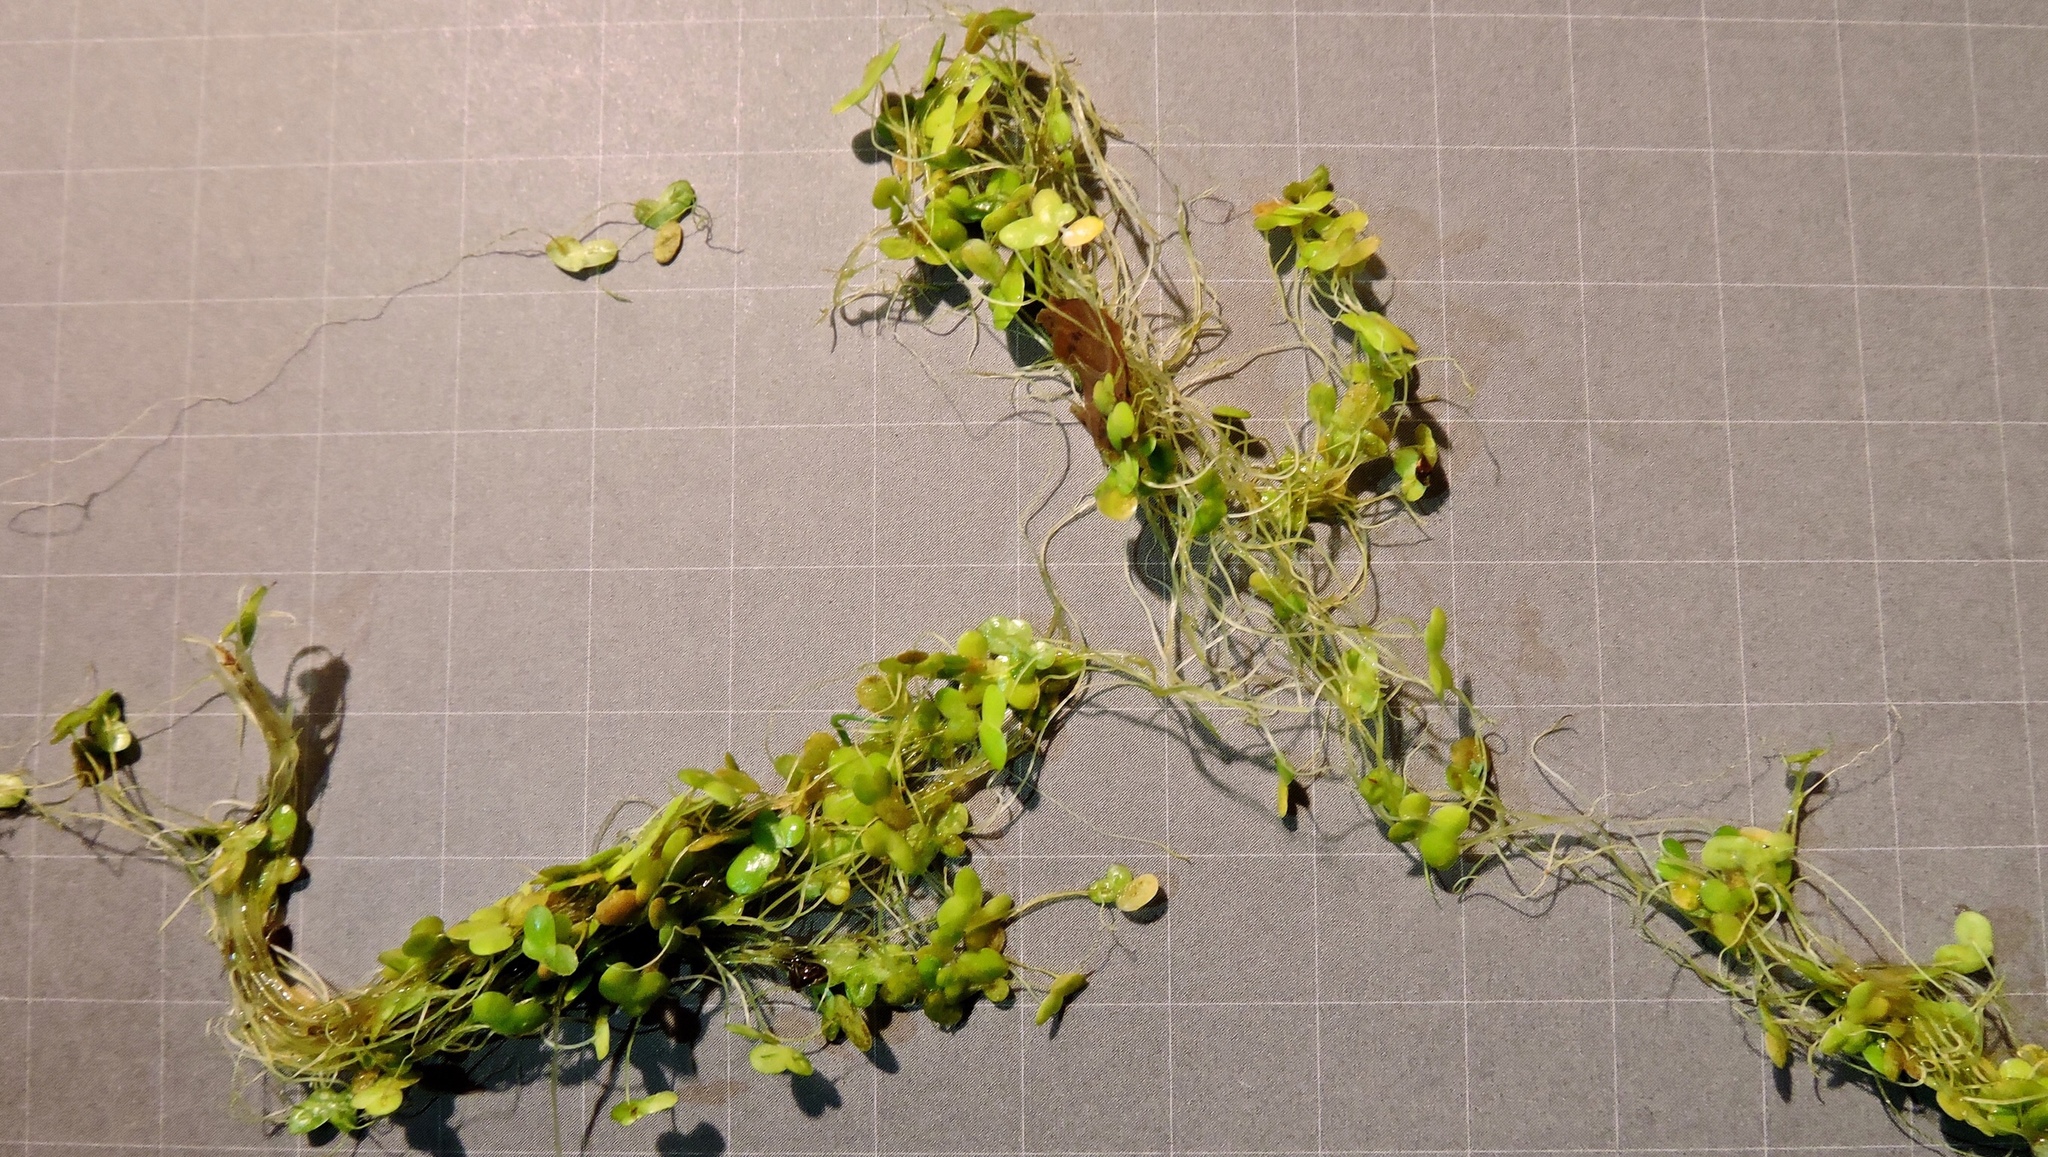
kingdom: Plantae
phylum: Tracheophyta
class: Liliopsida
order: Alismatales
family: Araceae
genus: Lemna
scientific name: Lemna minor
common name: Common duckweed
